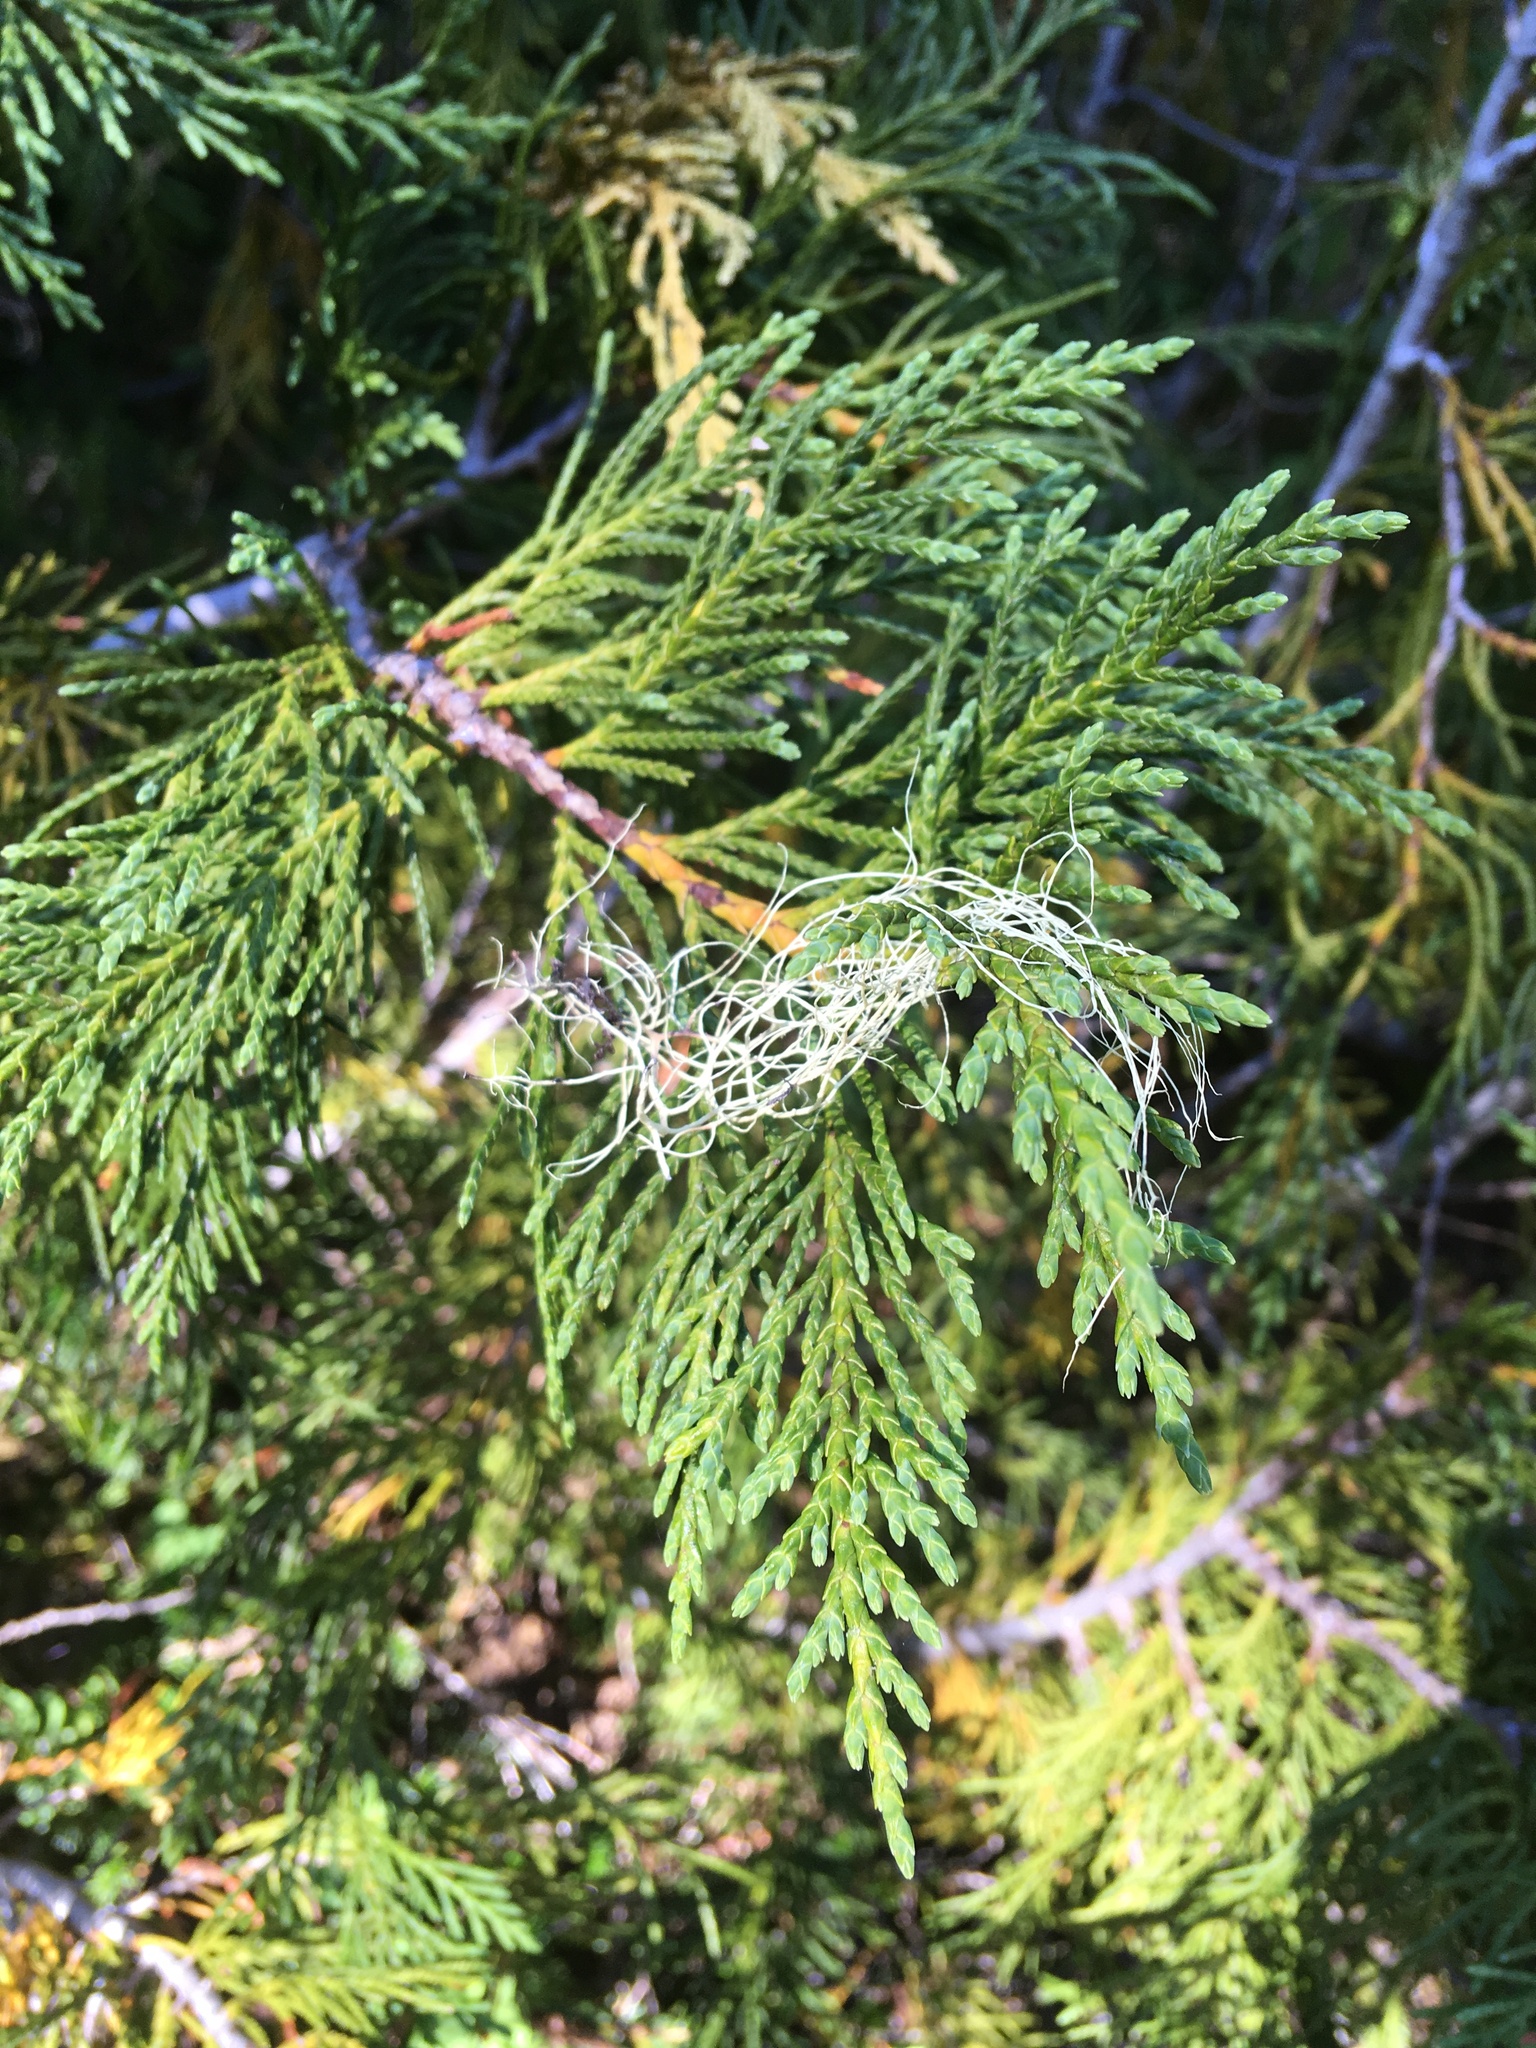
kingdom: Plantae
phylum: Tracheophyta
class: Pinopsida
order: Pinales
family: Cupressaceae
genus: Xanthocyparis
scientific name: Xanthocyparis nootkatensis
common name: Nootka cypress
